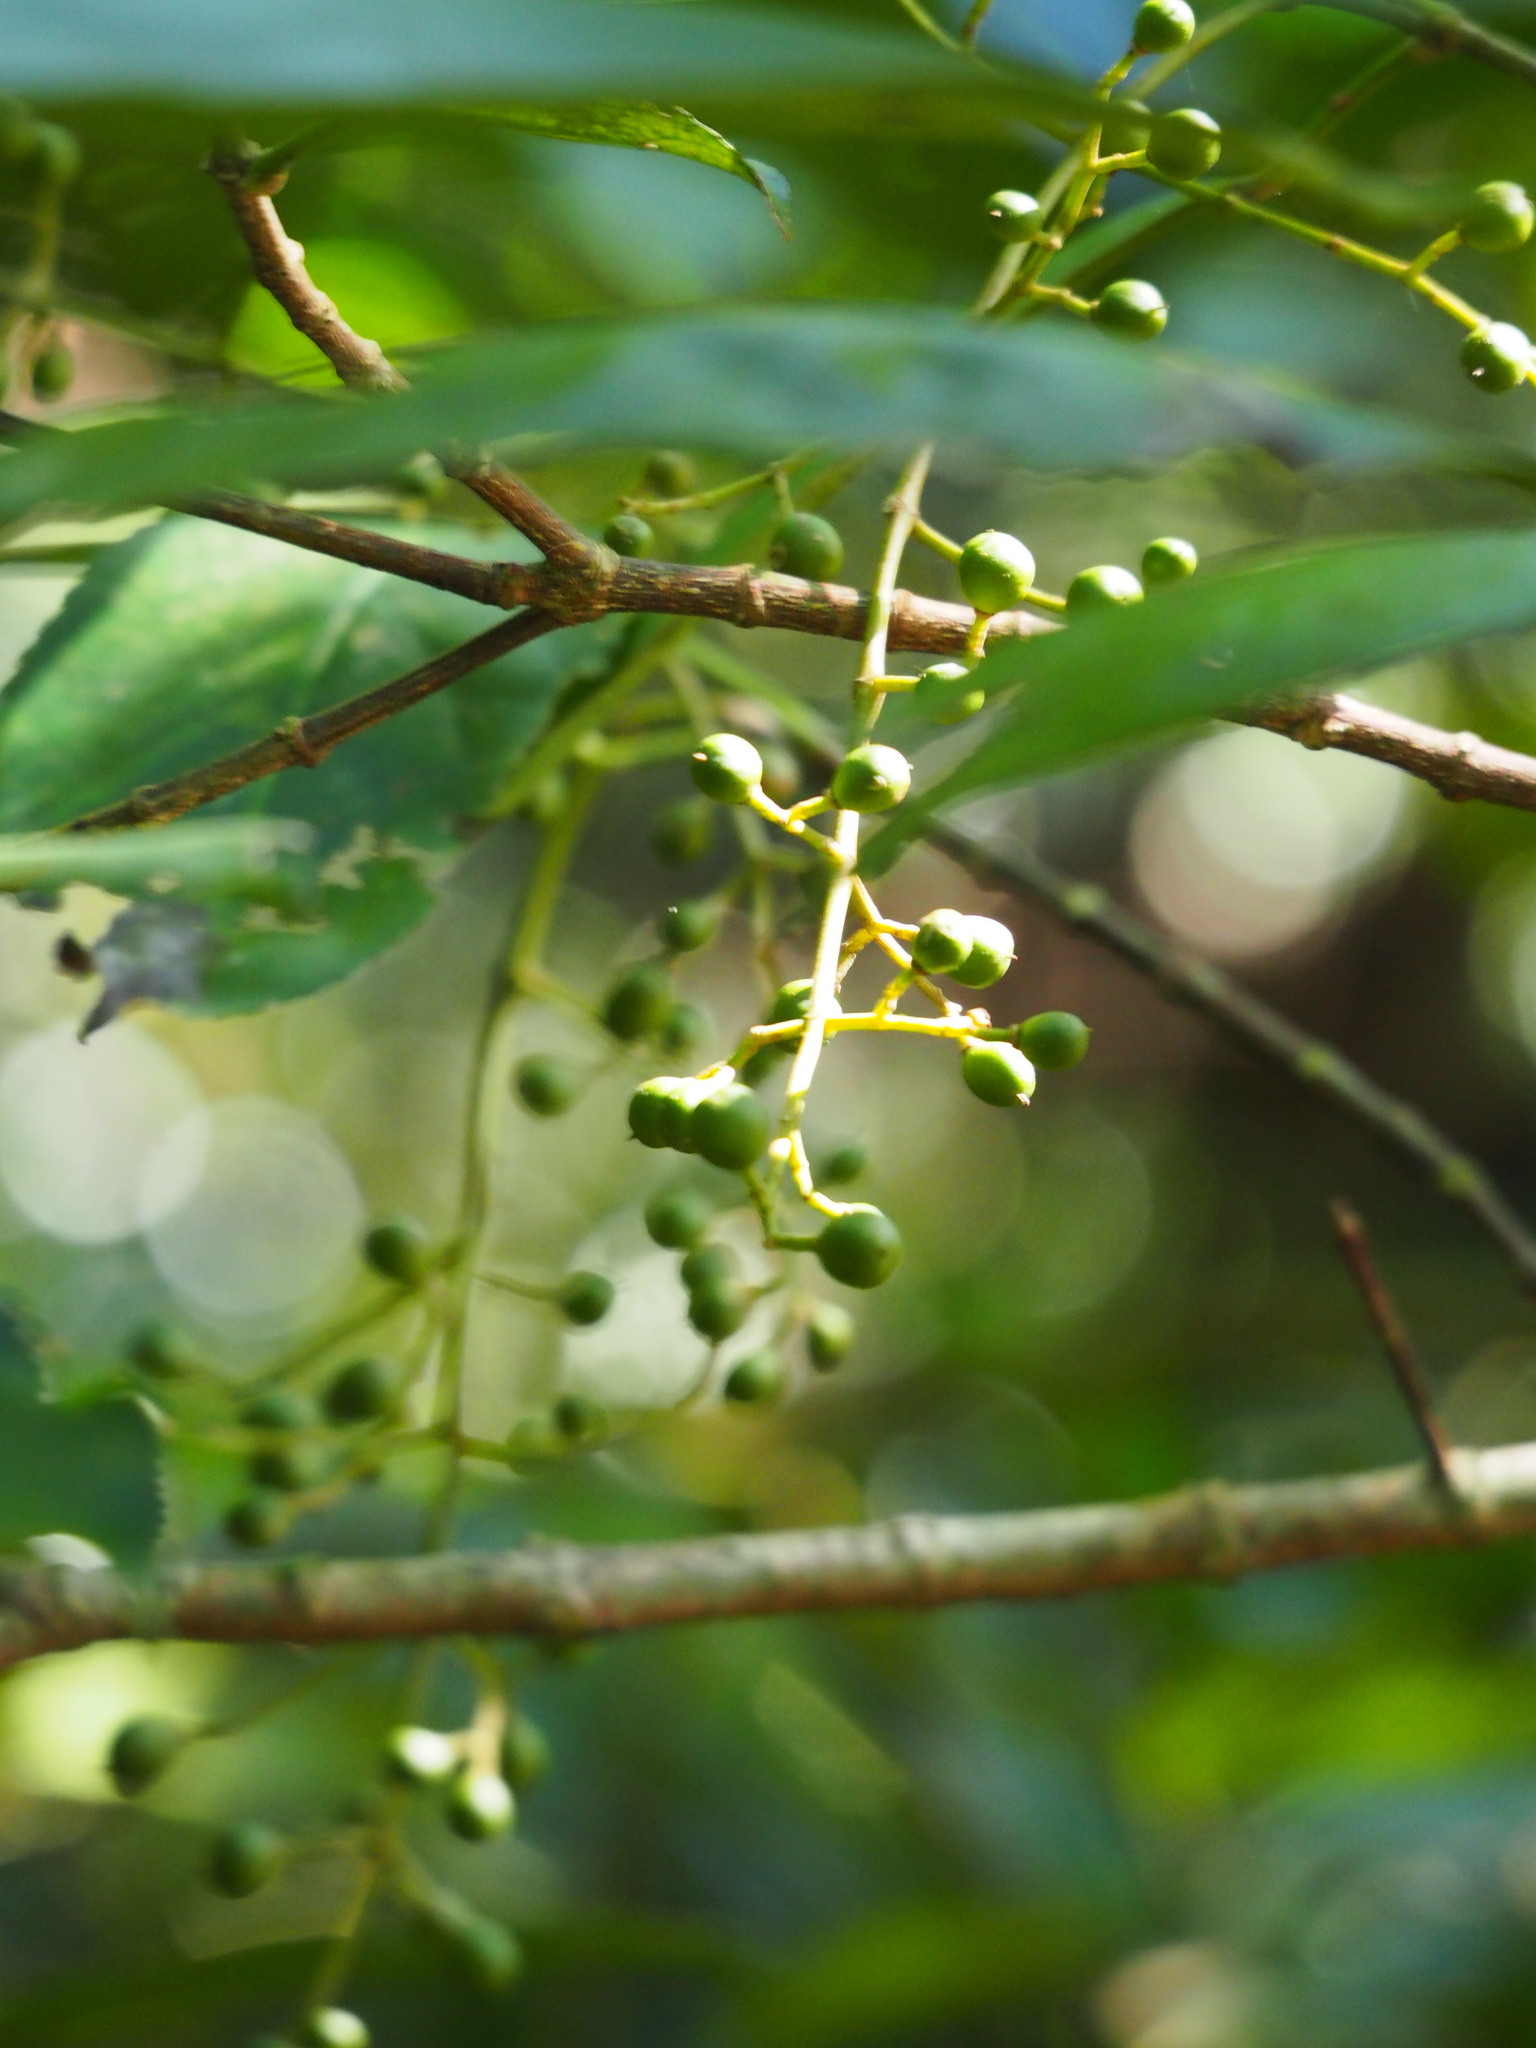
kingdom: Plantae
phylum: Tracheophyta
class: Magnoliopsida
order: Crossosomatales
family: Staphyleaceae
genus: Turpinia
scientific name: Turpinia formosana
